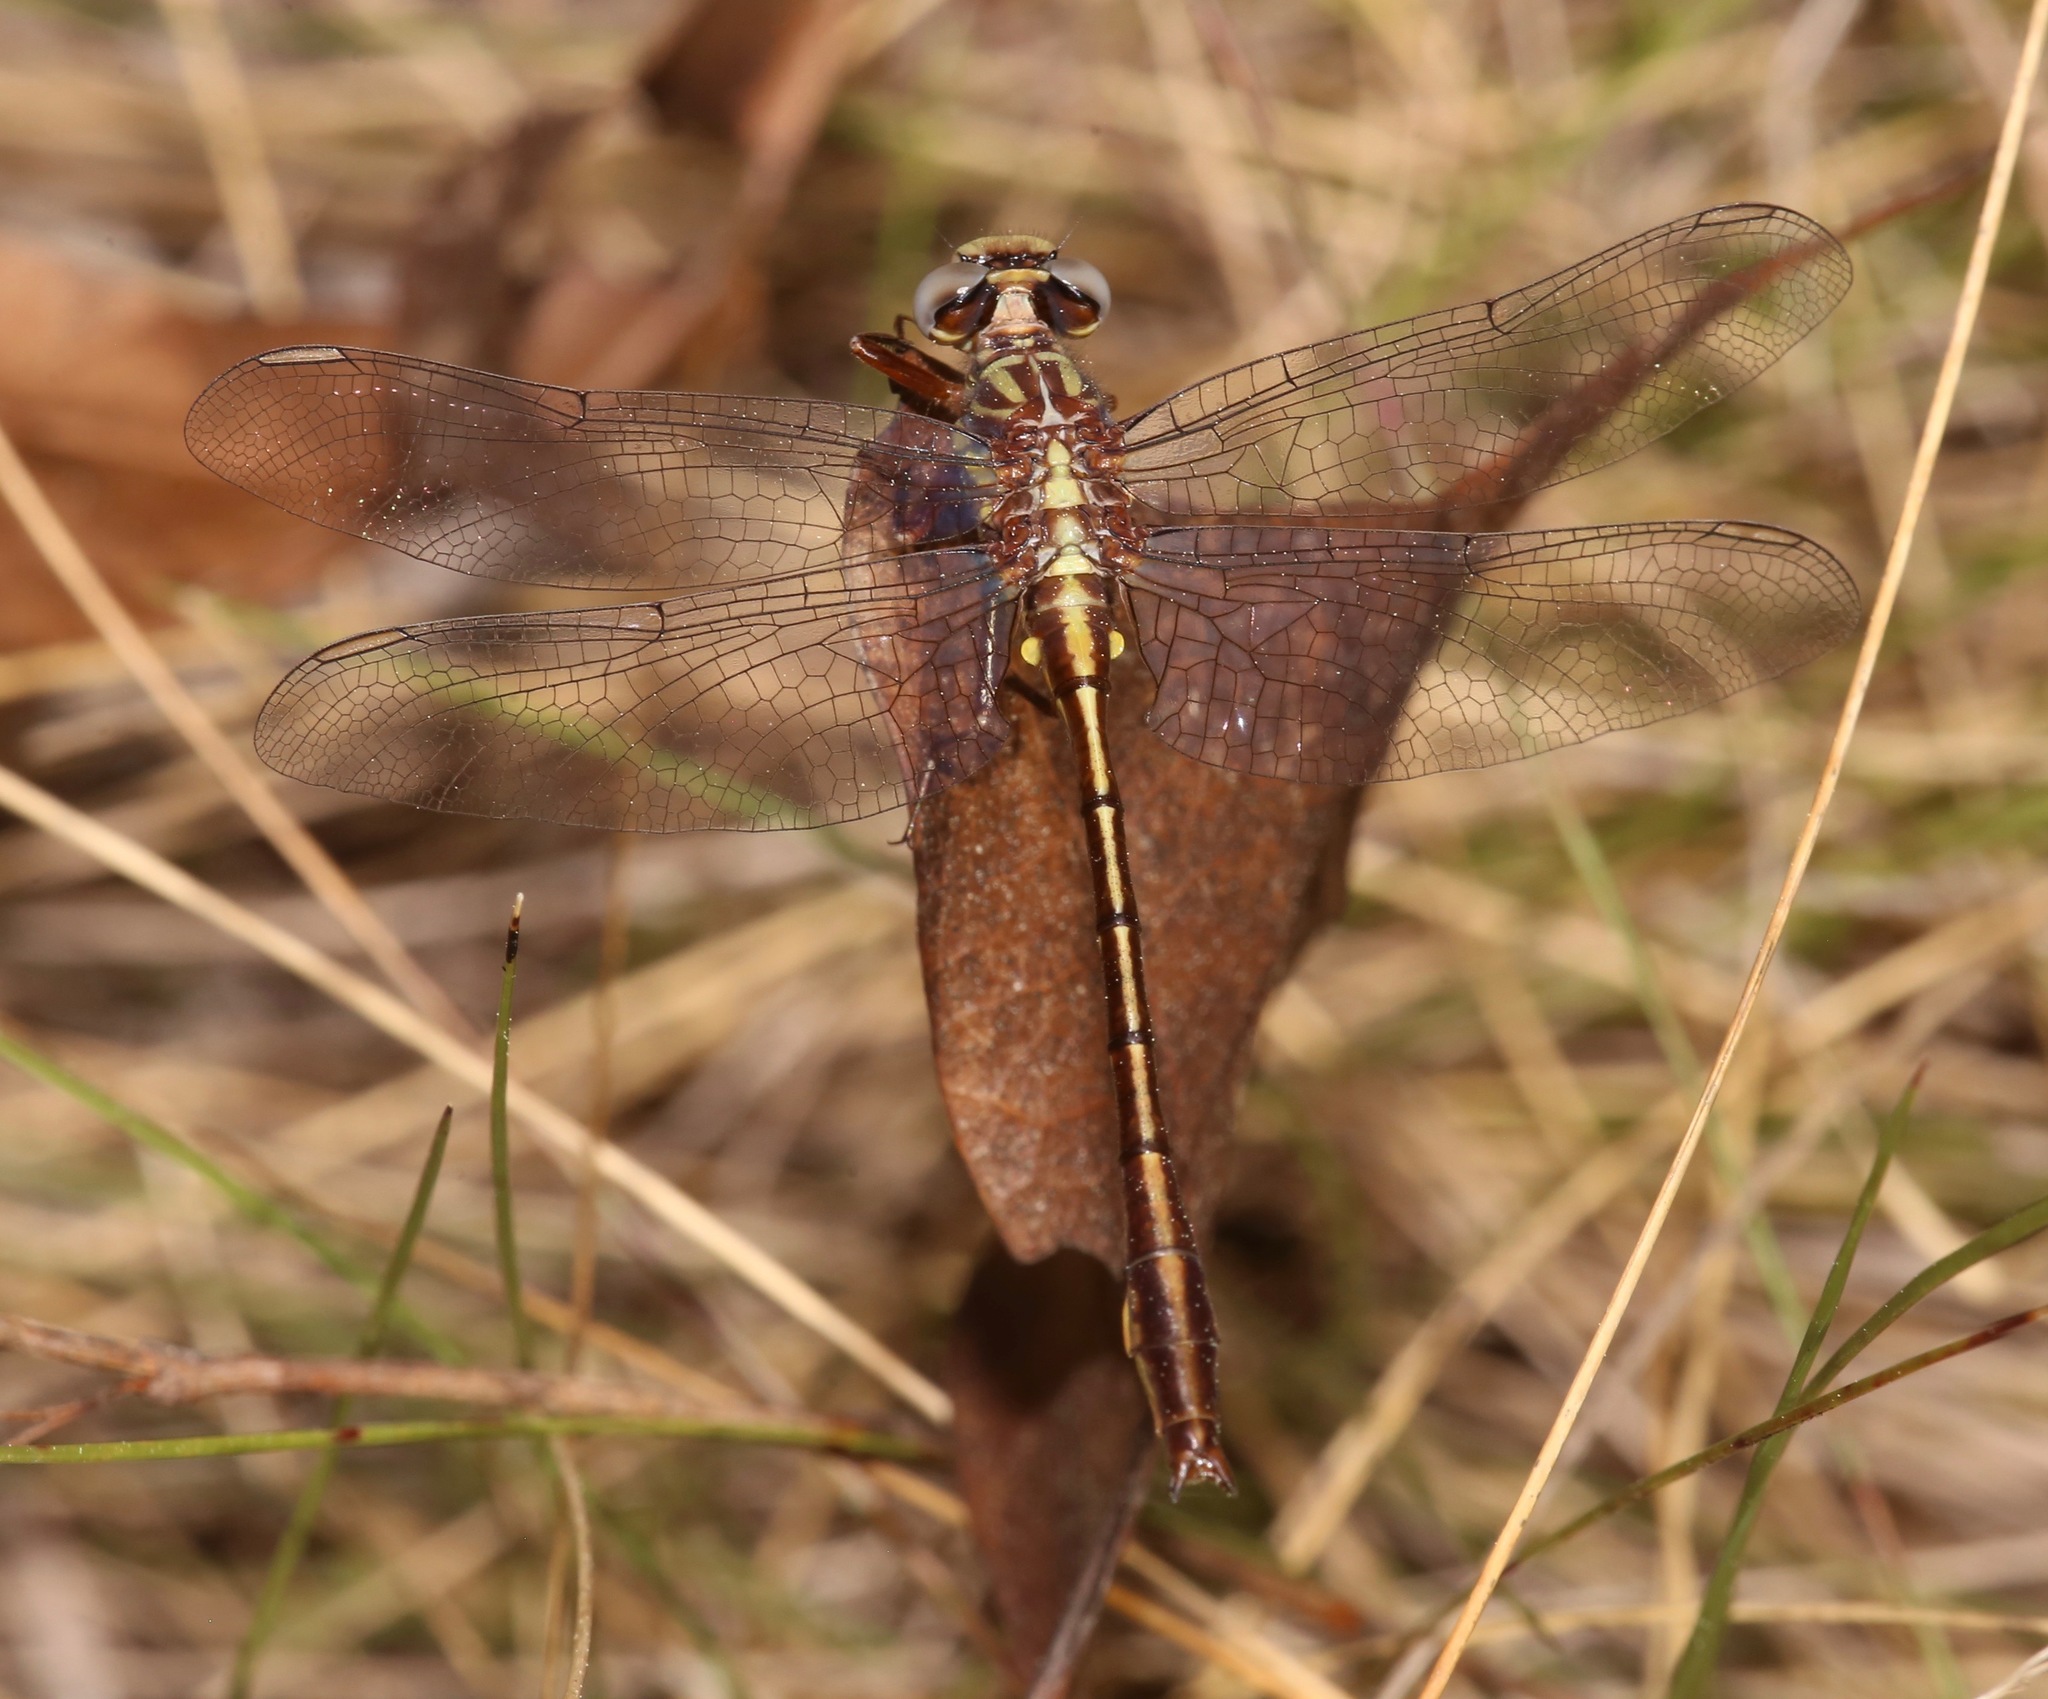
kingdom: Animalia
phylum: Arthropoda
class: Insecta
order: Odonata
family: Gomphidae
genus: Phanogomphus
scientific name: Phanogomphus minutus
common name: Cypress clubtail
